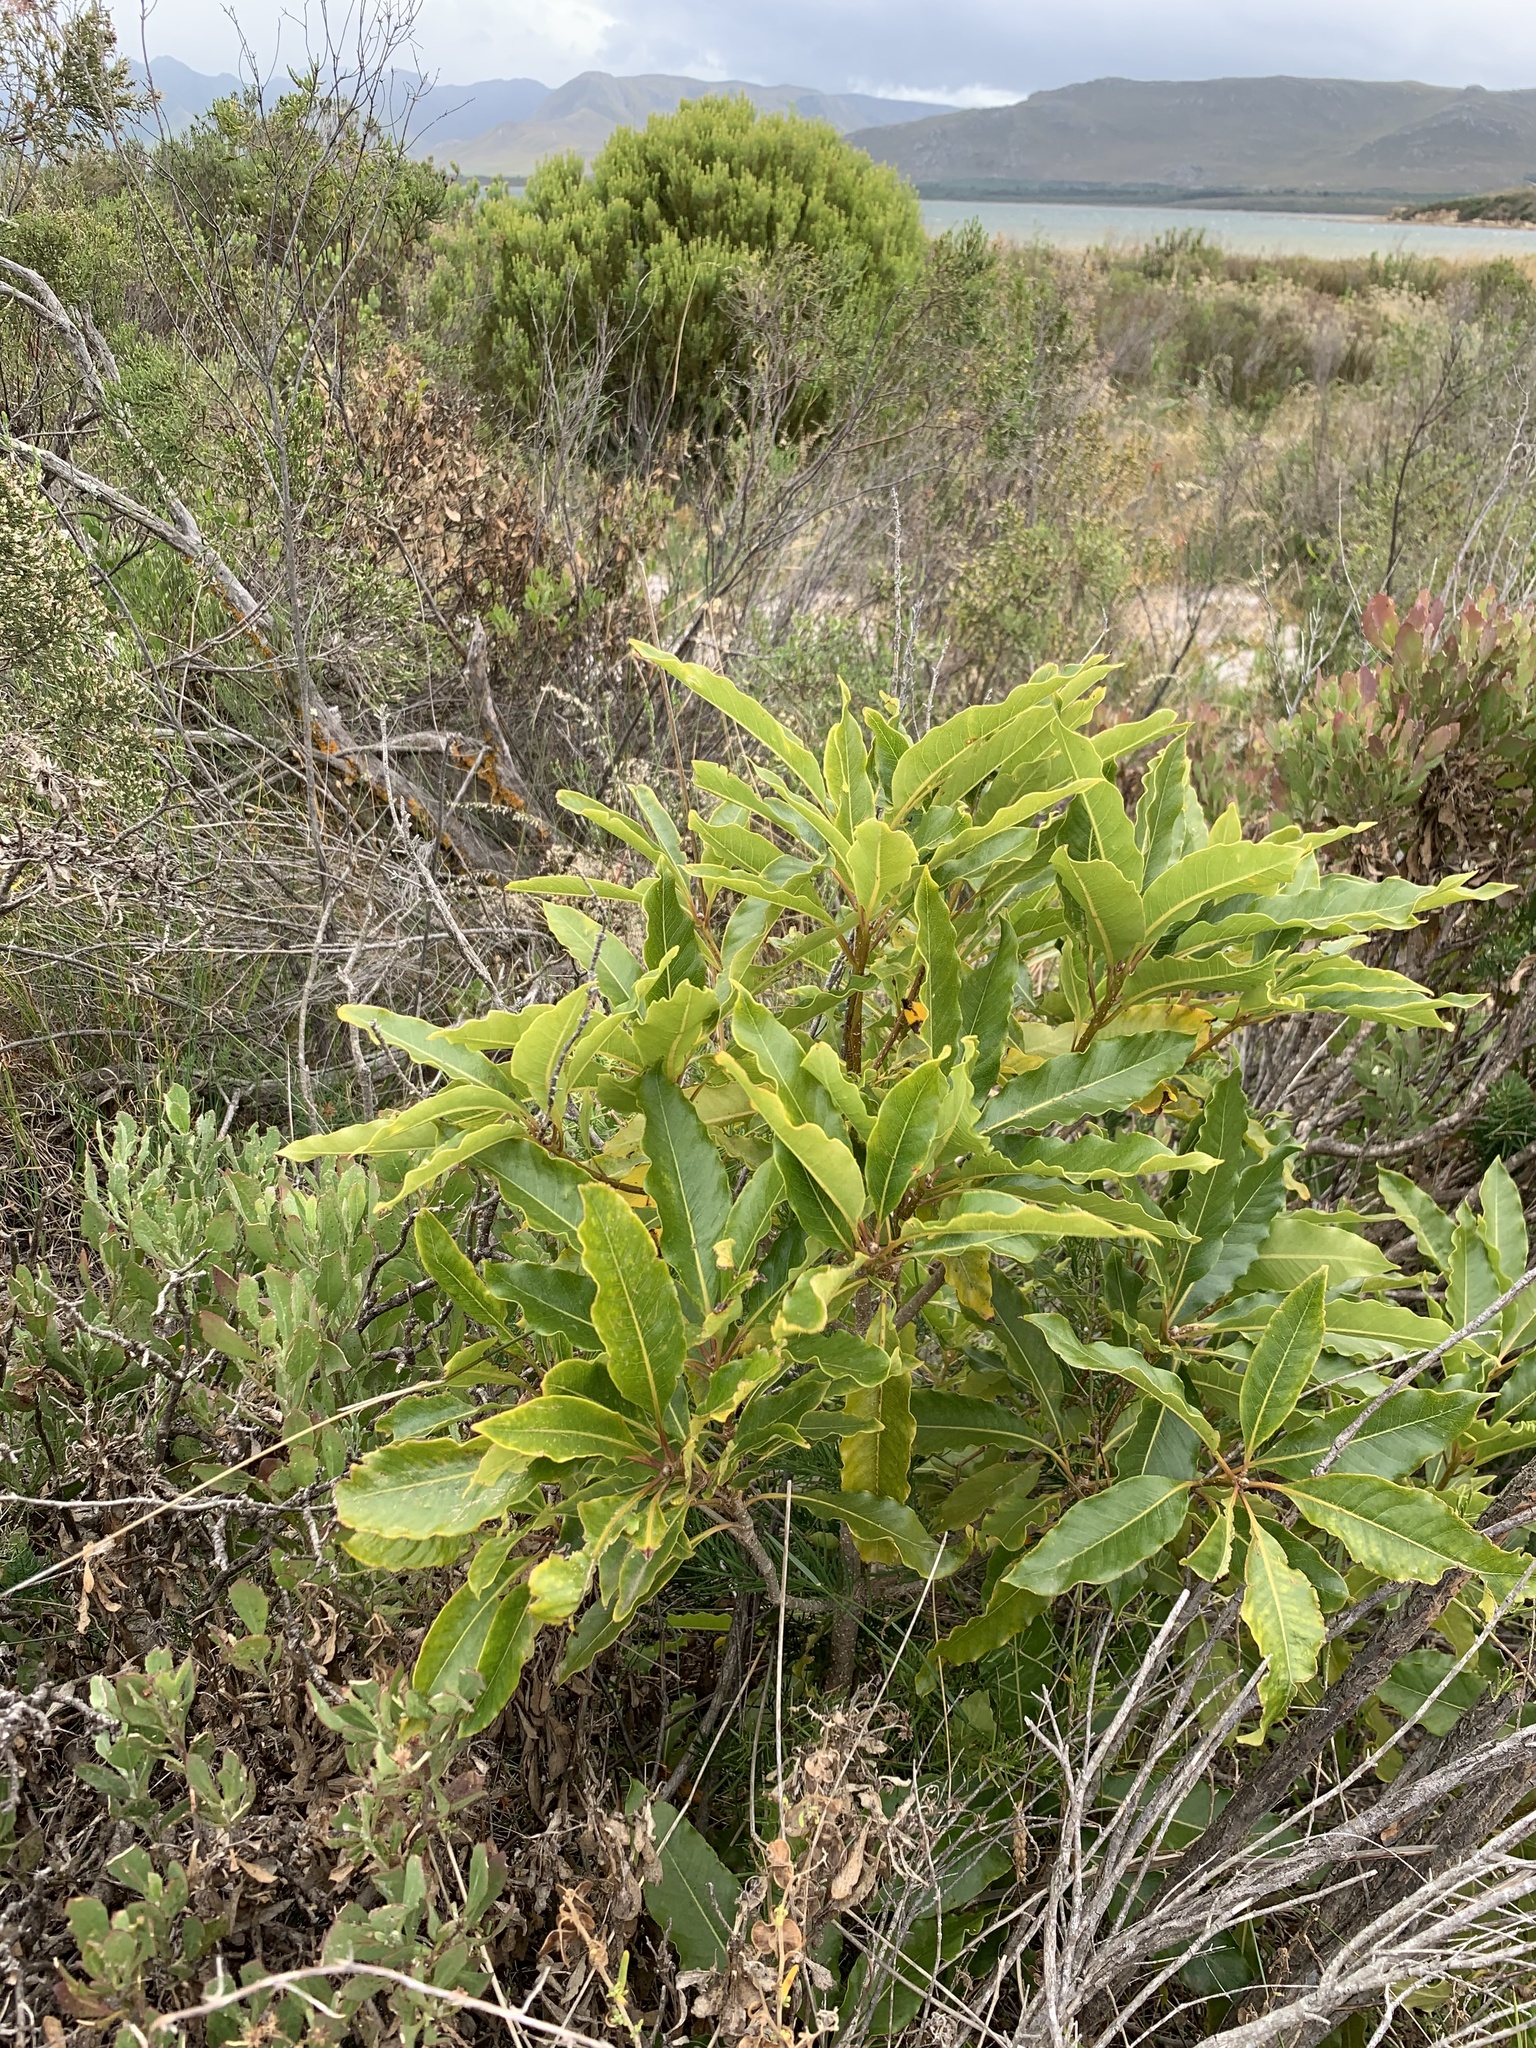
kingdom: Plantae
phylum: Tracheophyta
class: Magnoliopsida
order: Apiales
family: Pittosporaceae
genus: Pittosporum
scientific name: Pittosporum undulatum
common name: Australian cheesewood
